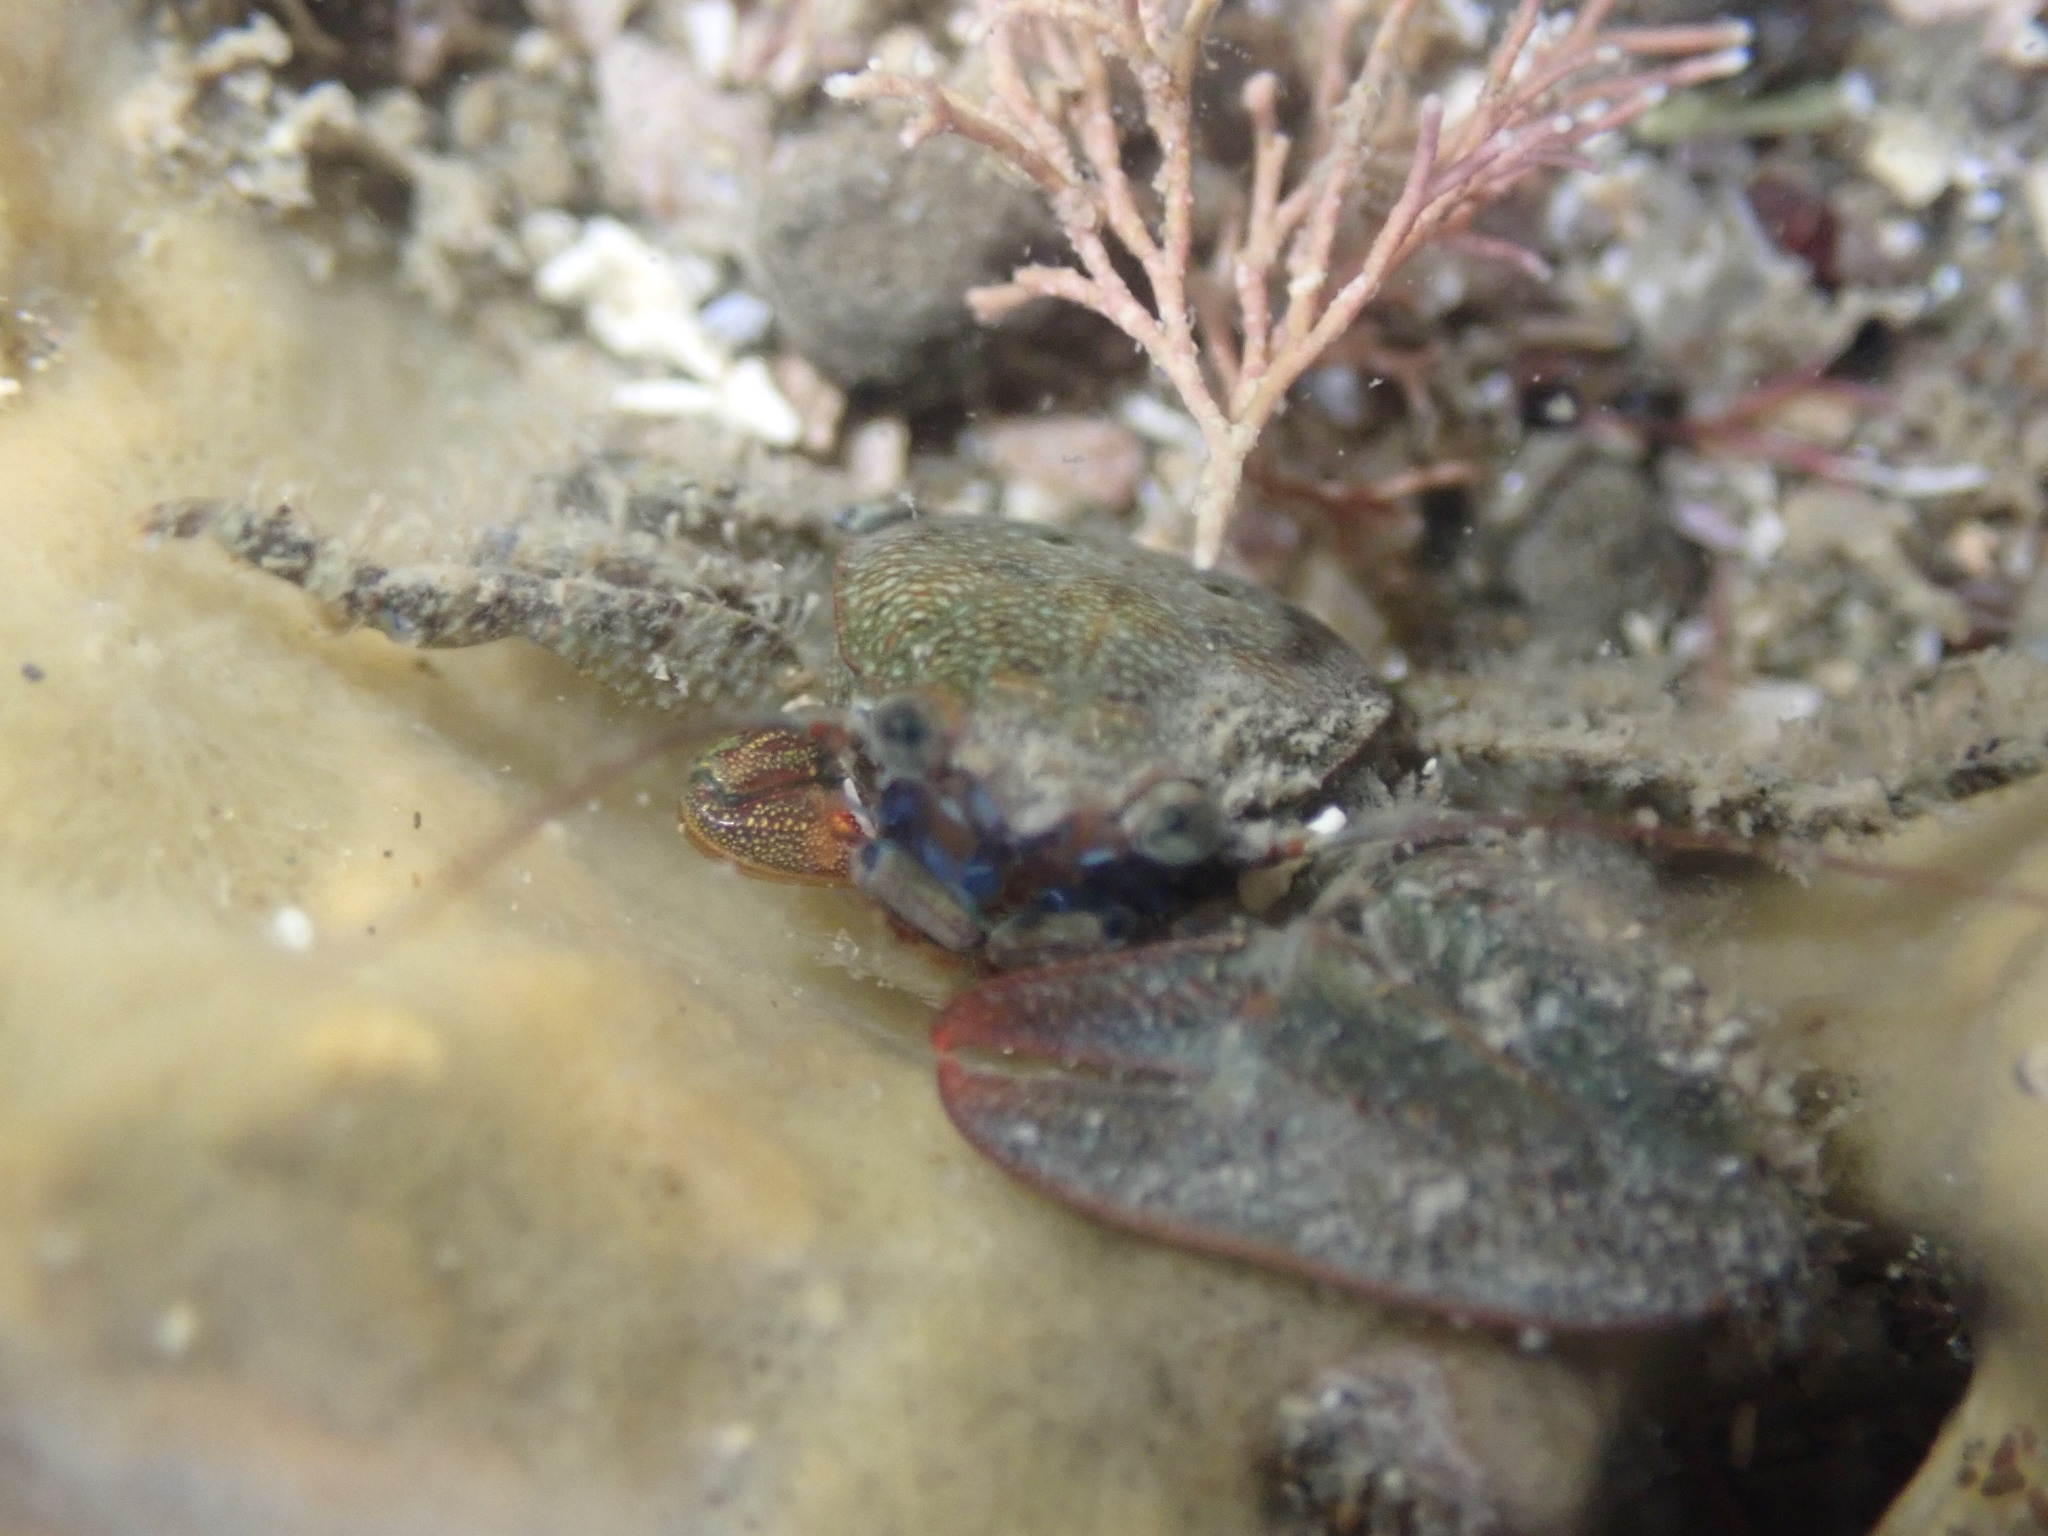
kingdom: Animalia
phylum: Arthropoda
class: Malacostraca
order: Decapoda
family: Porcellanidae
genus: Petrolisthes
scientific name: Petrolisthes elongatus
